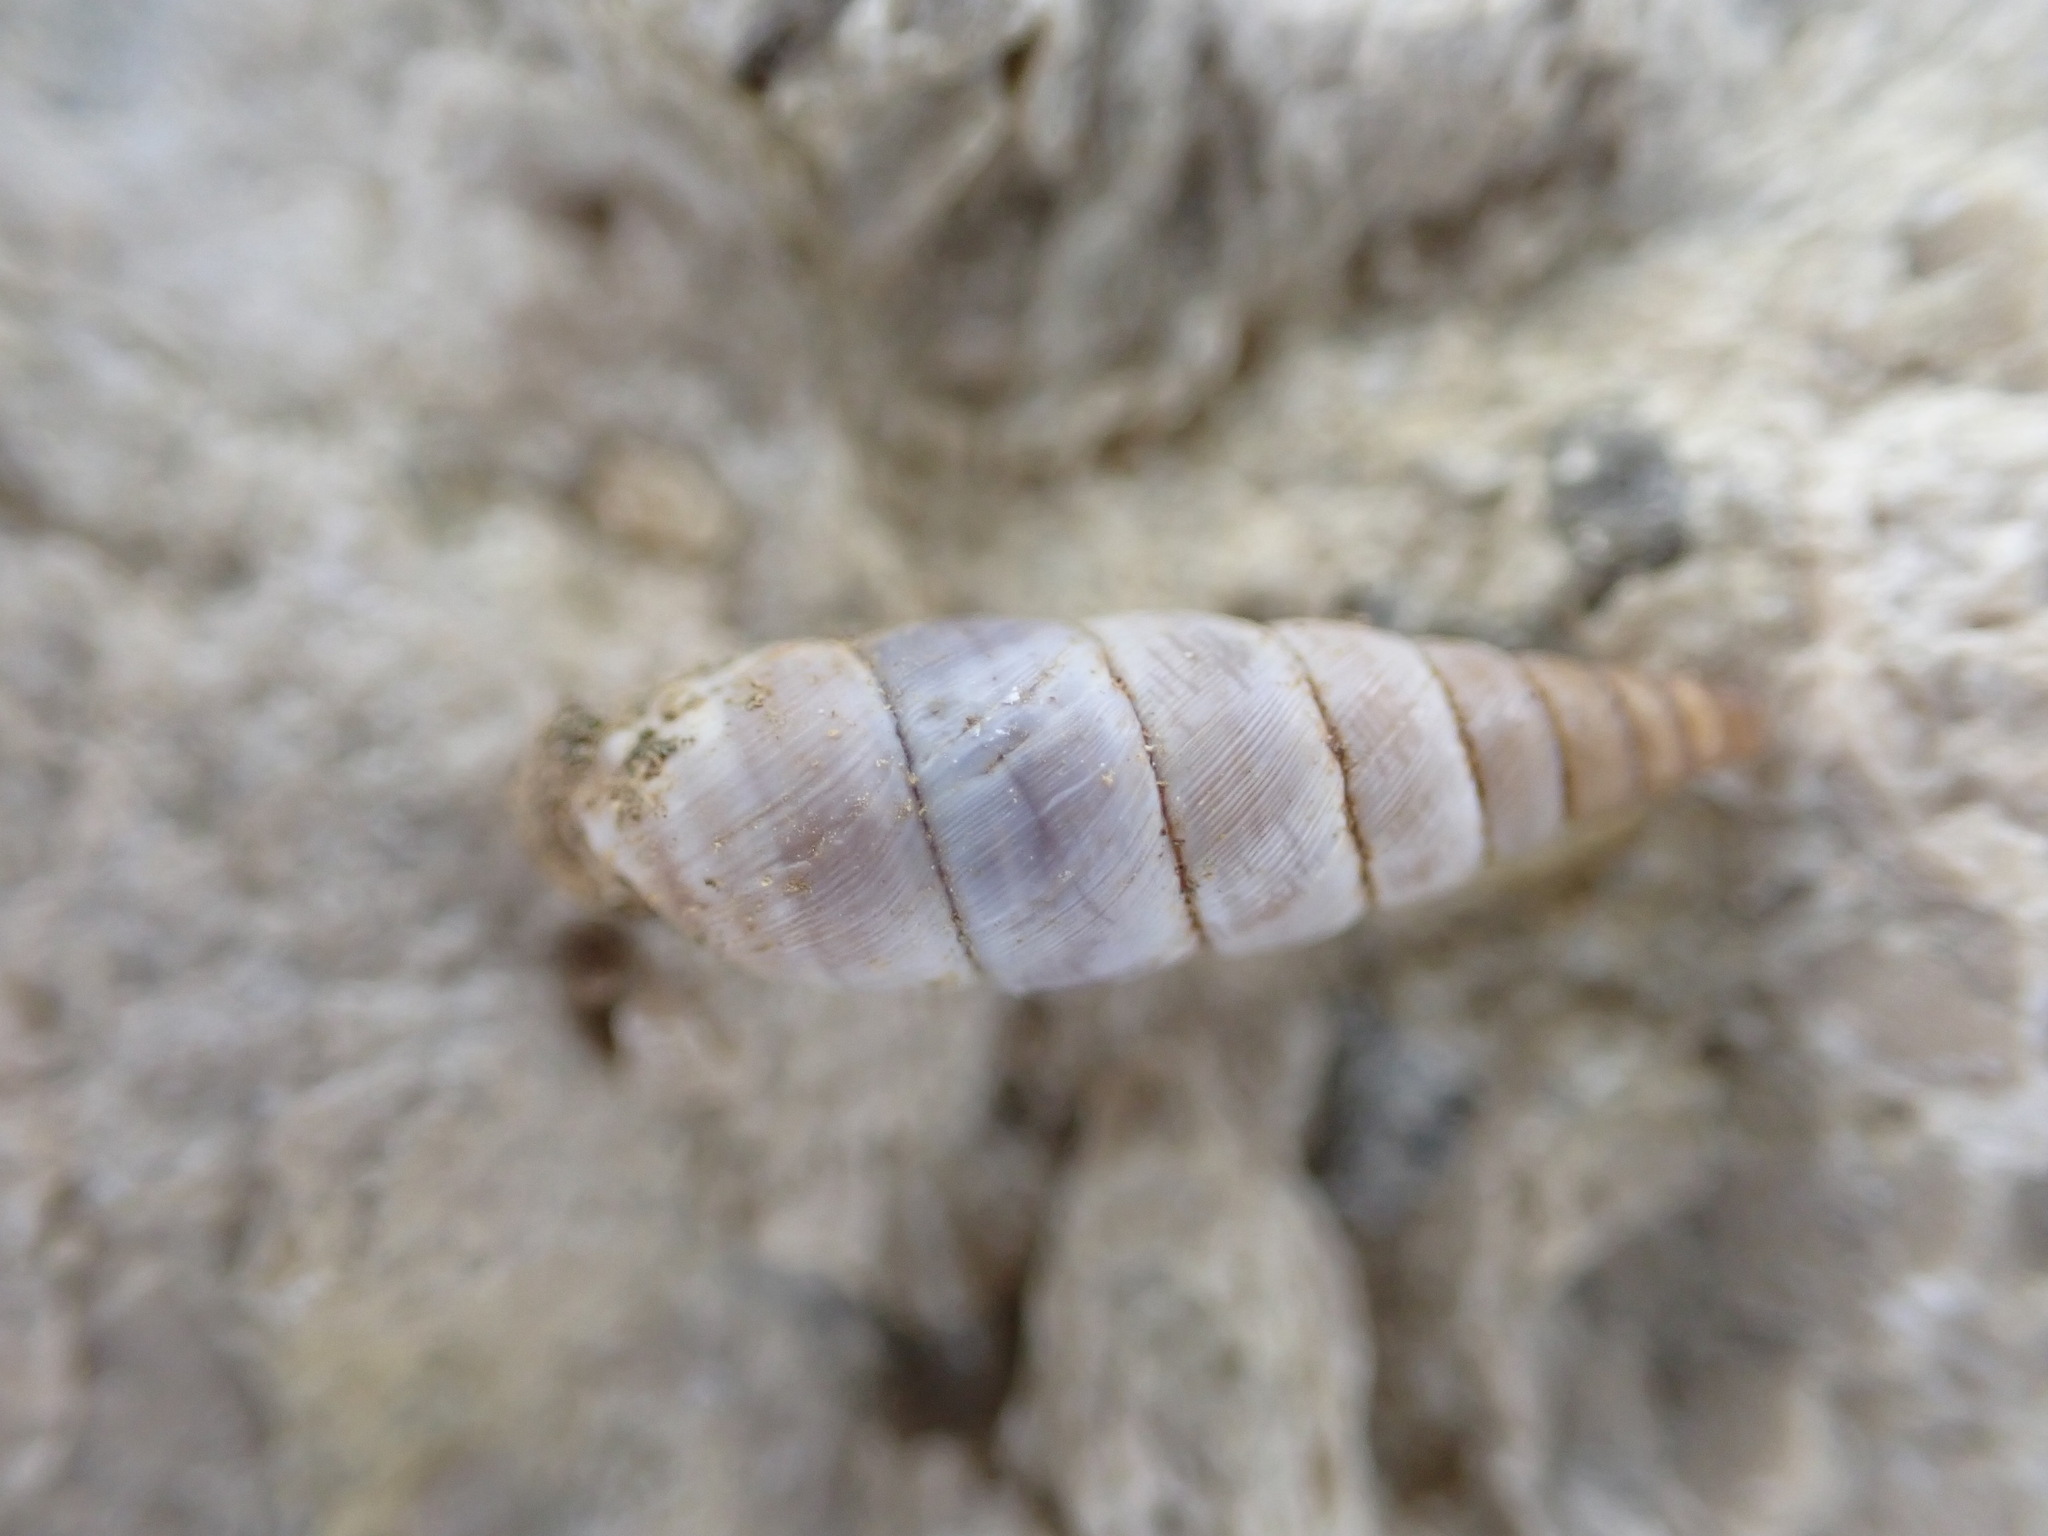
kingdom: Animalia
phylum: Mollusca
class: Gastropoda
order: Stylommatophora
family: Chondrinidae
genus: Solatopupa
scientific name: Solatopupa similis
